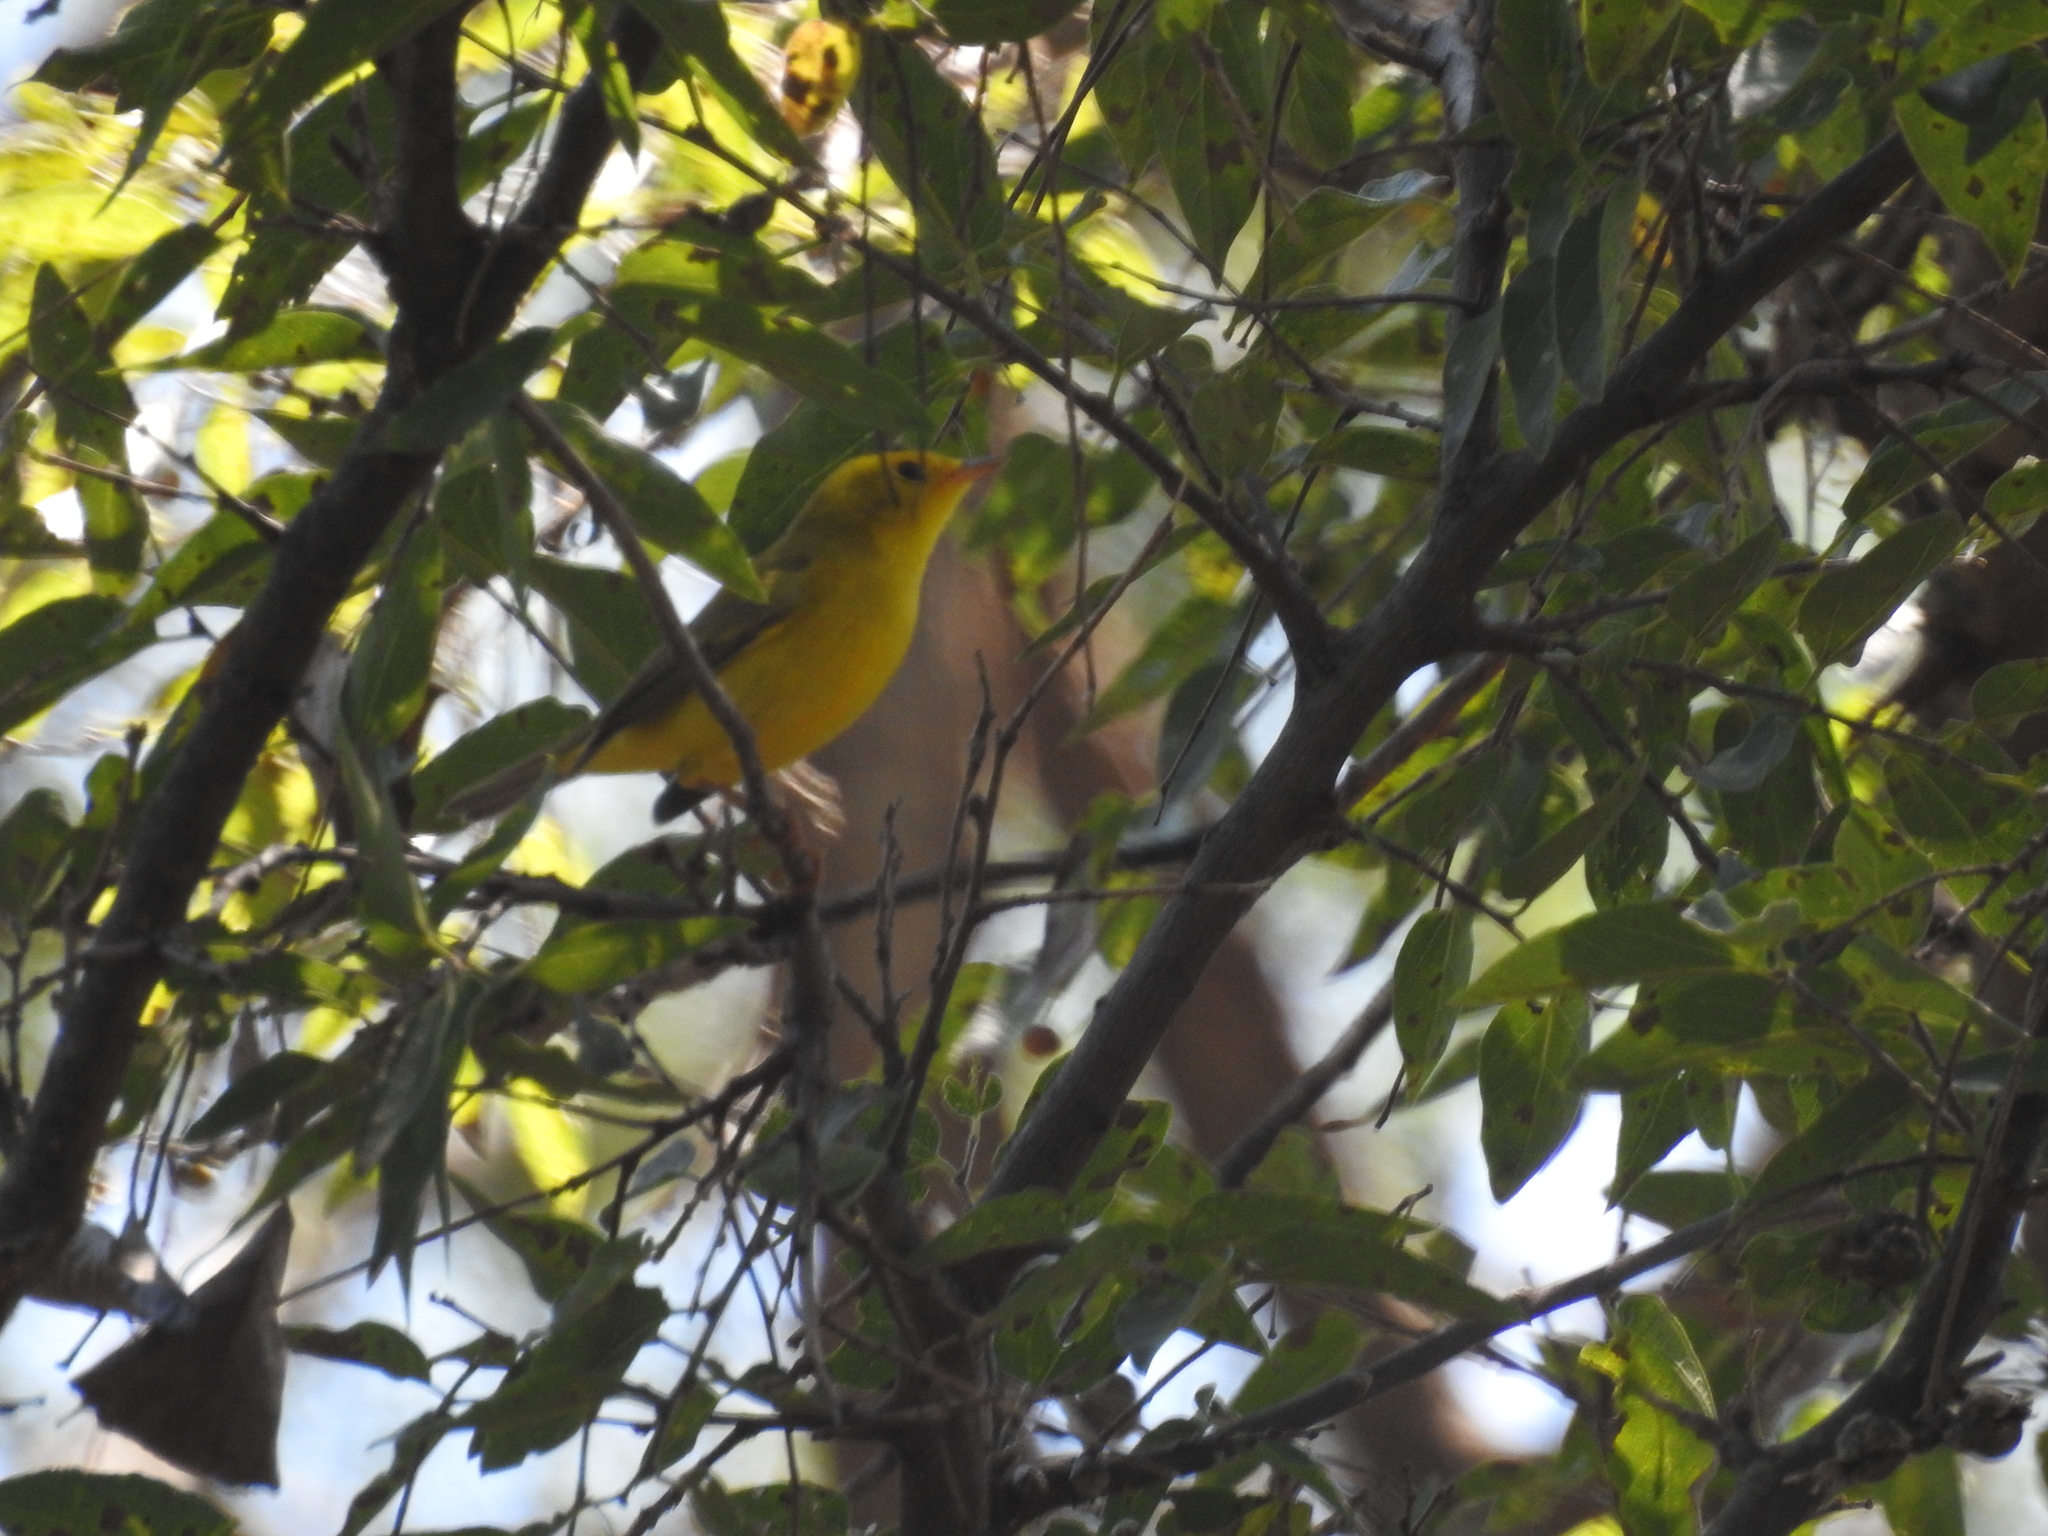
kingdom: Animalia
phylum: Chordata
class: Aves
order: Passeriformes
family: Parulidae
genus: Cardellina
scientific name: Cardellina pusilla
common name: Wilson's warbler
